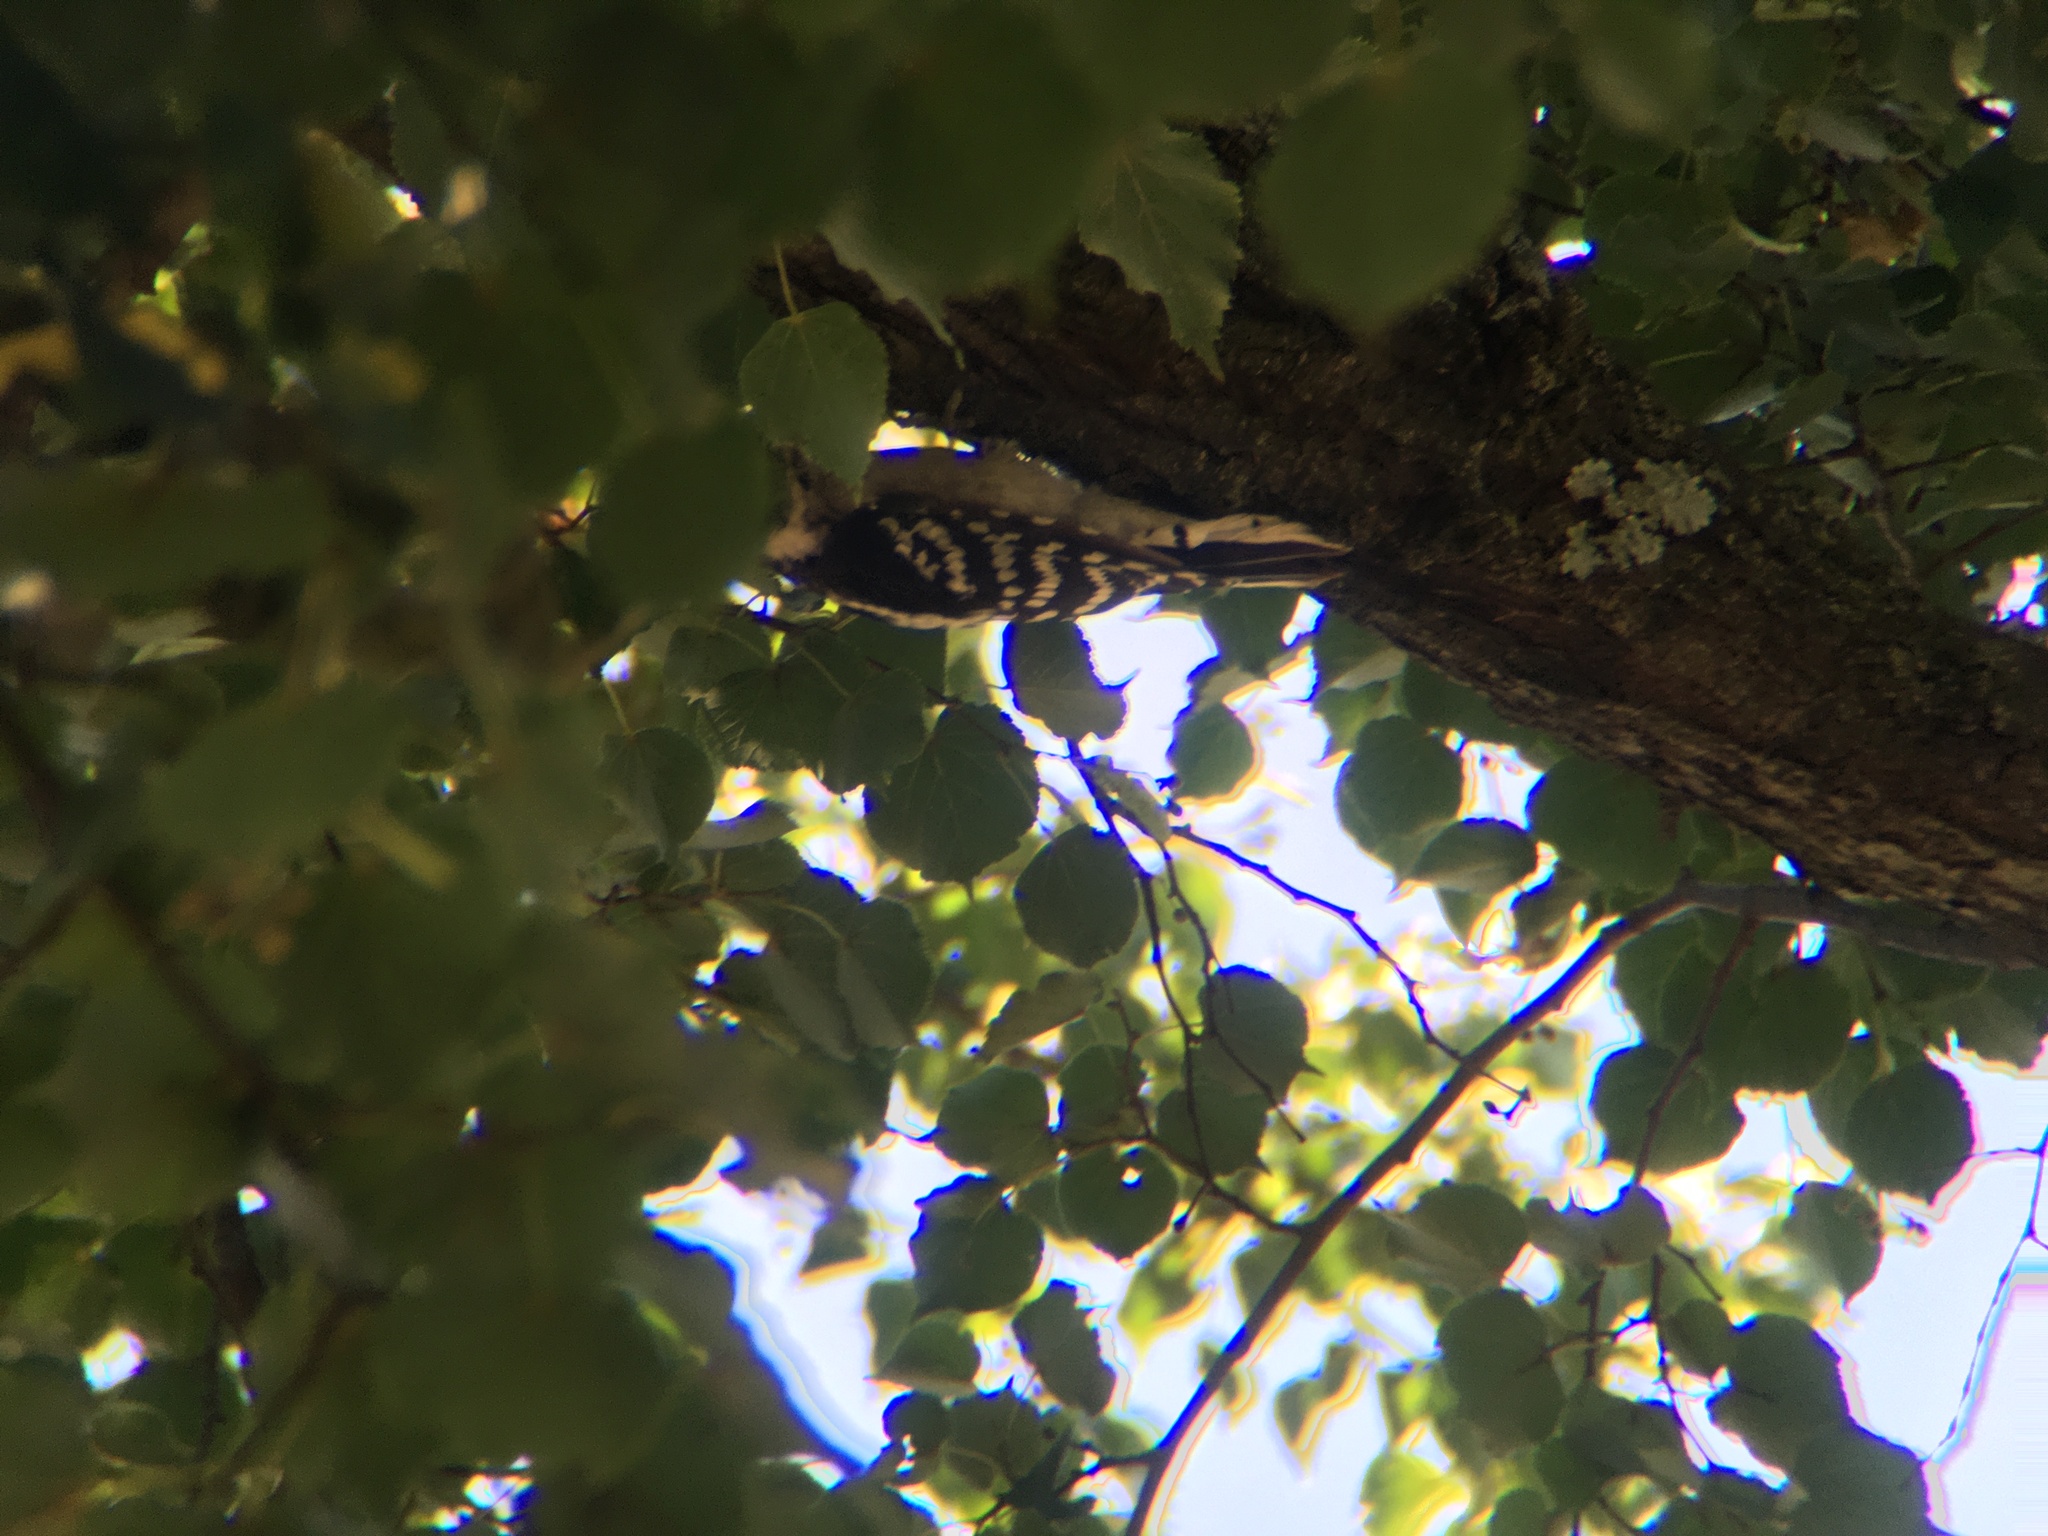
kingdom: Animalia
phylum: Chordata
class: Aves
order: Piciformes
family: Picidae
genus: Dryobates
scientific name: Dryobates pubescens
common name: Downy woodpecker
